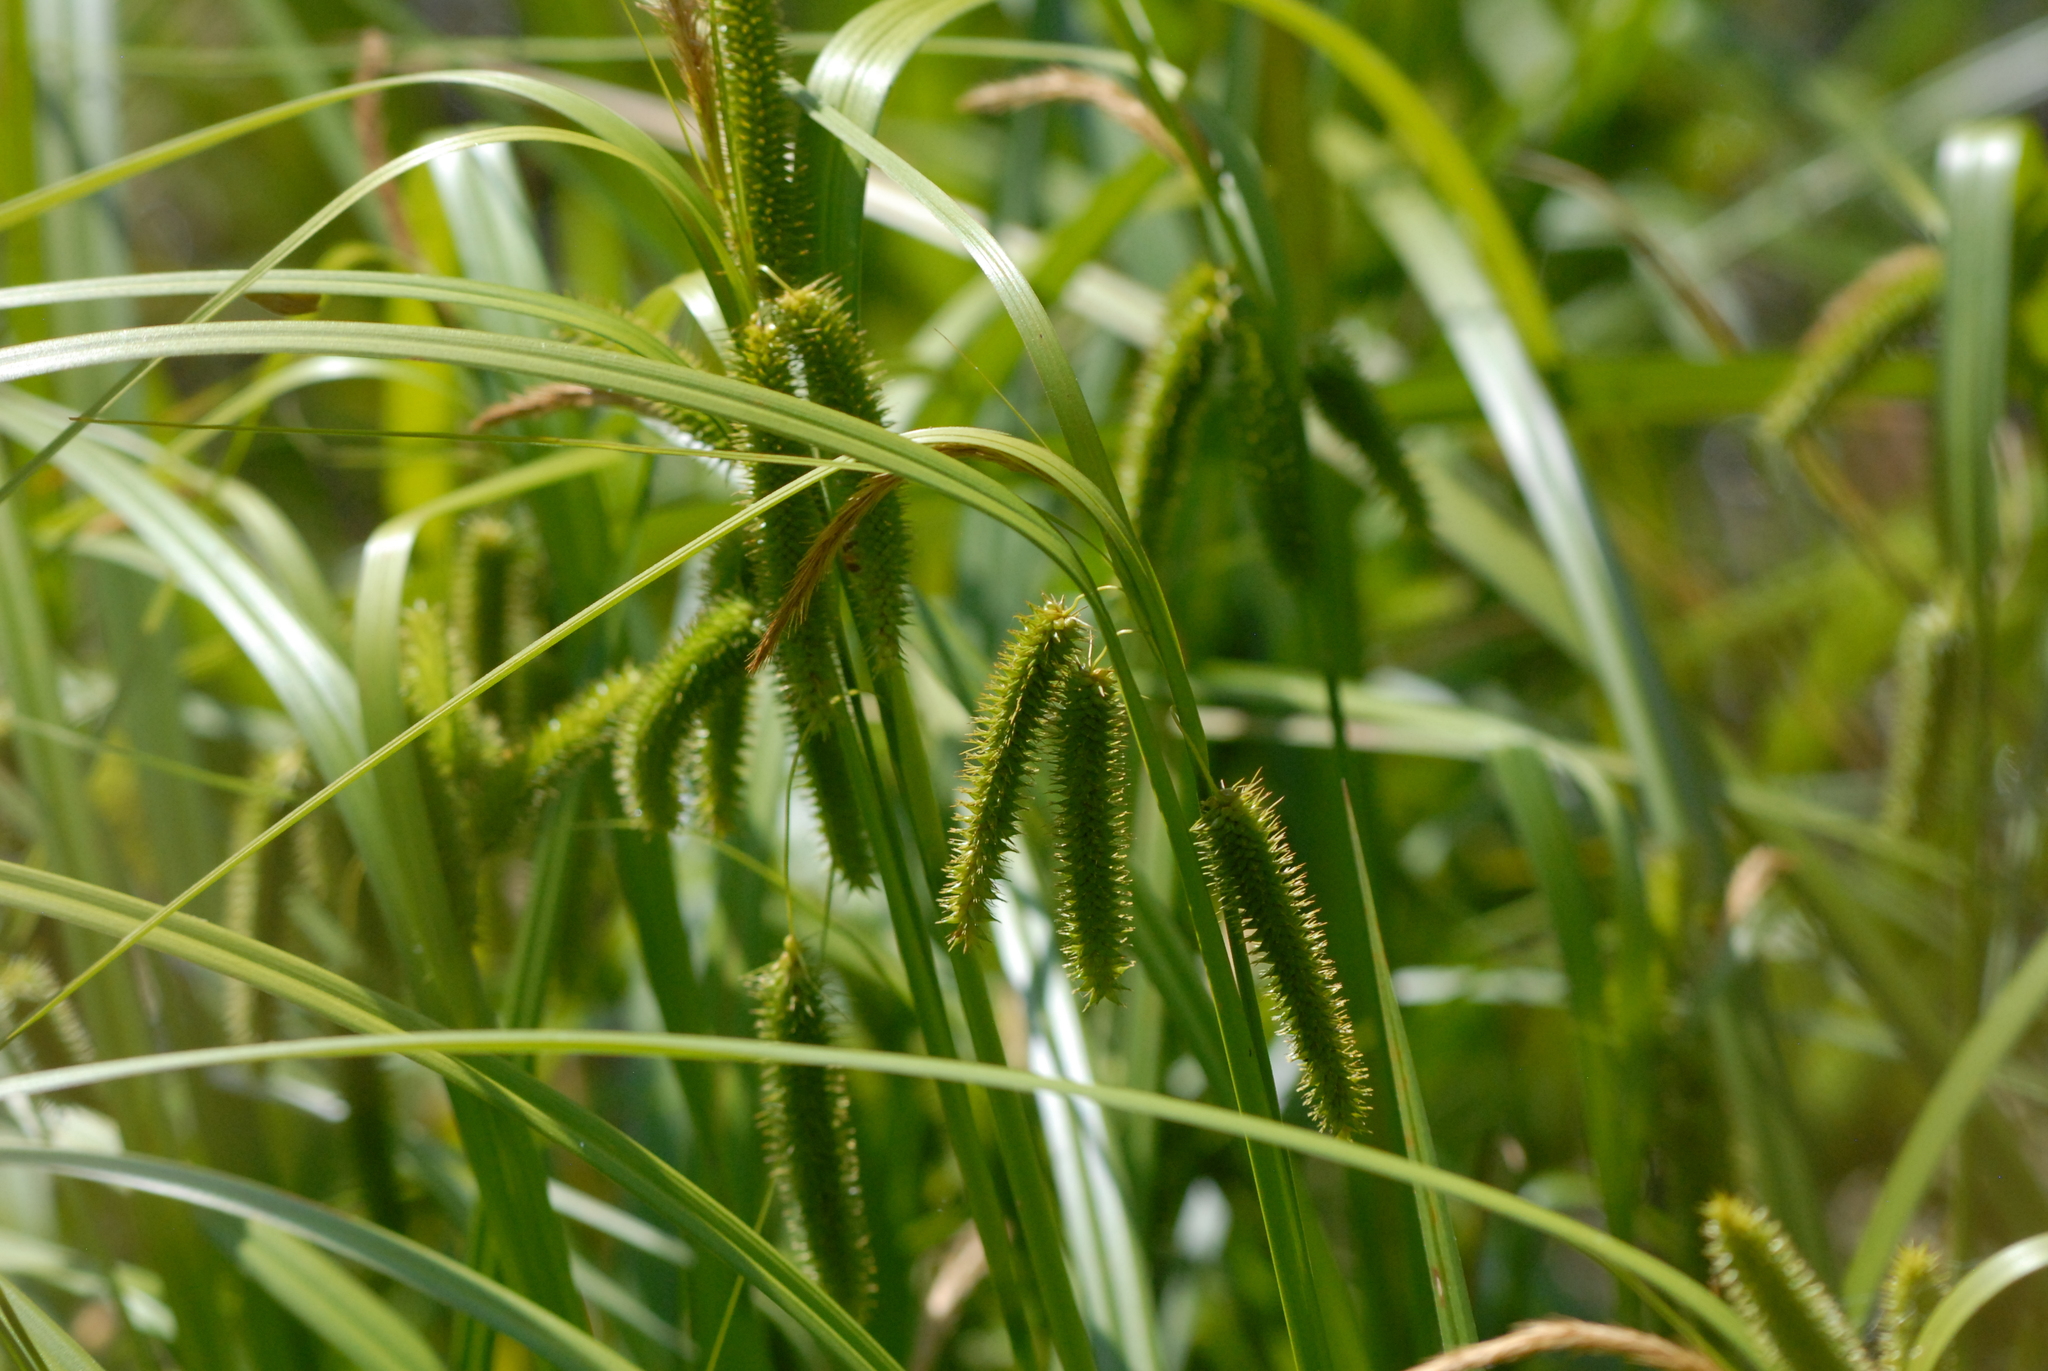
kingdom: Plantae
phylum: Tracheophyta
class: Liliopsida
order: Poales
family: Cyperaceae
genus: Carex
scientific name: Carex pseudocyperus
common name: Cyperus sedge
